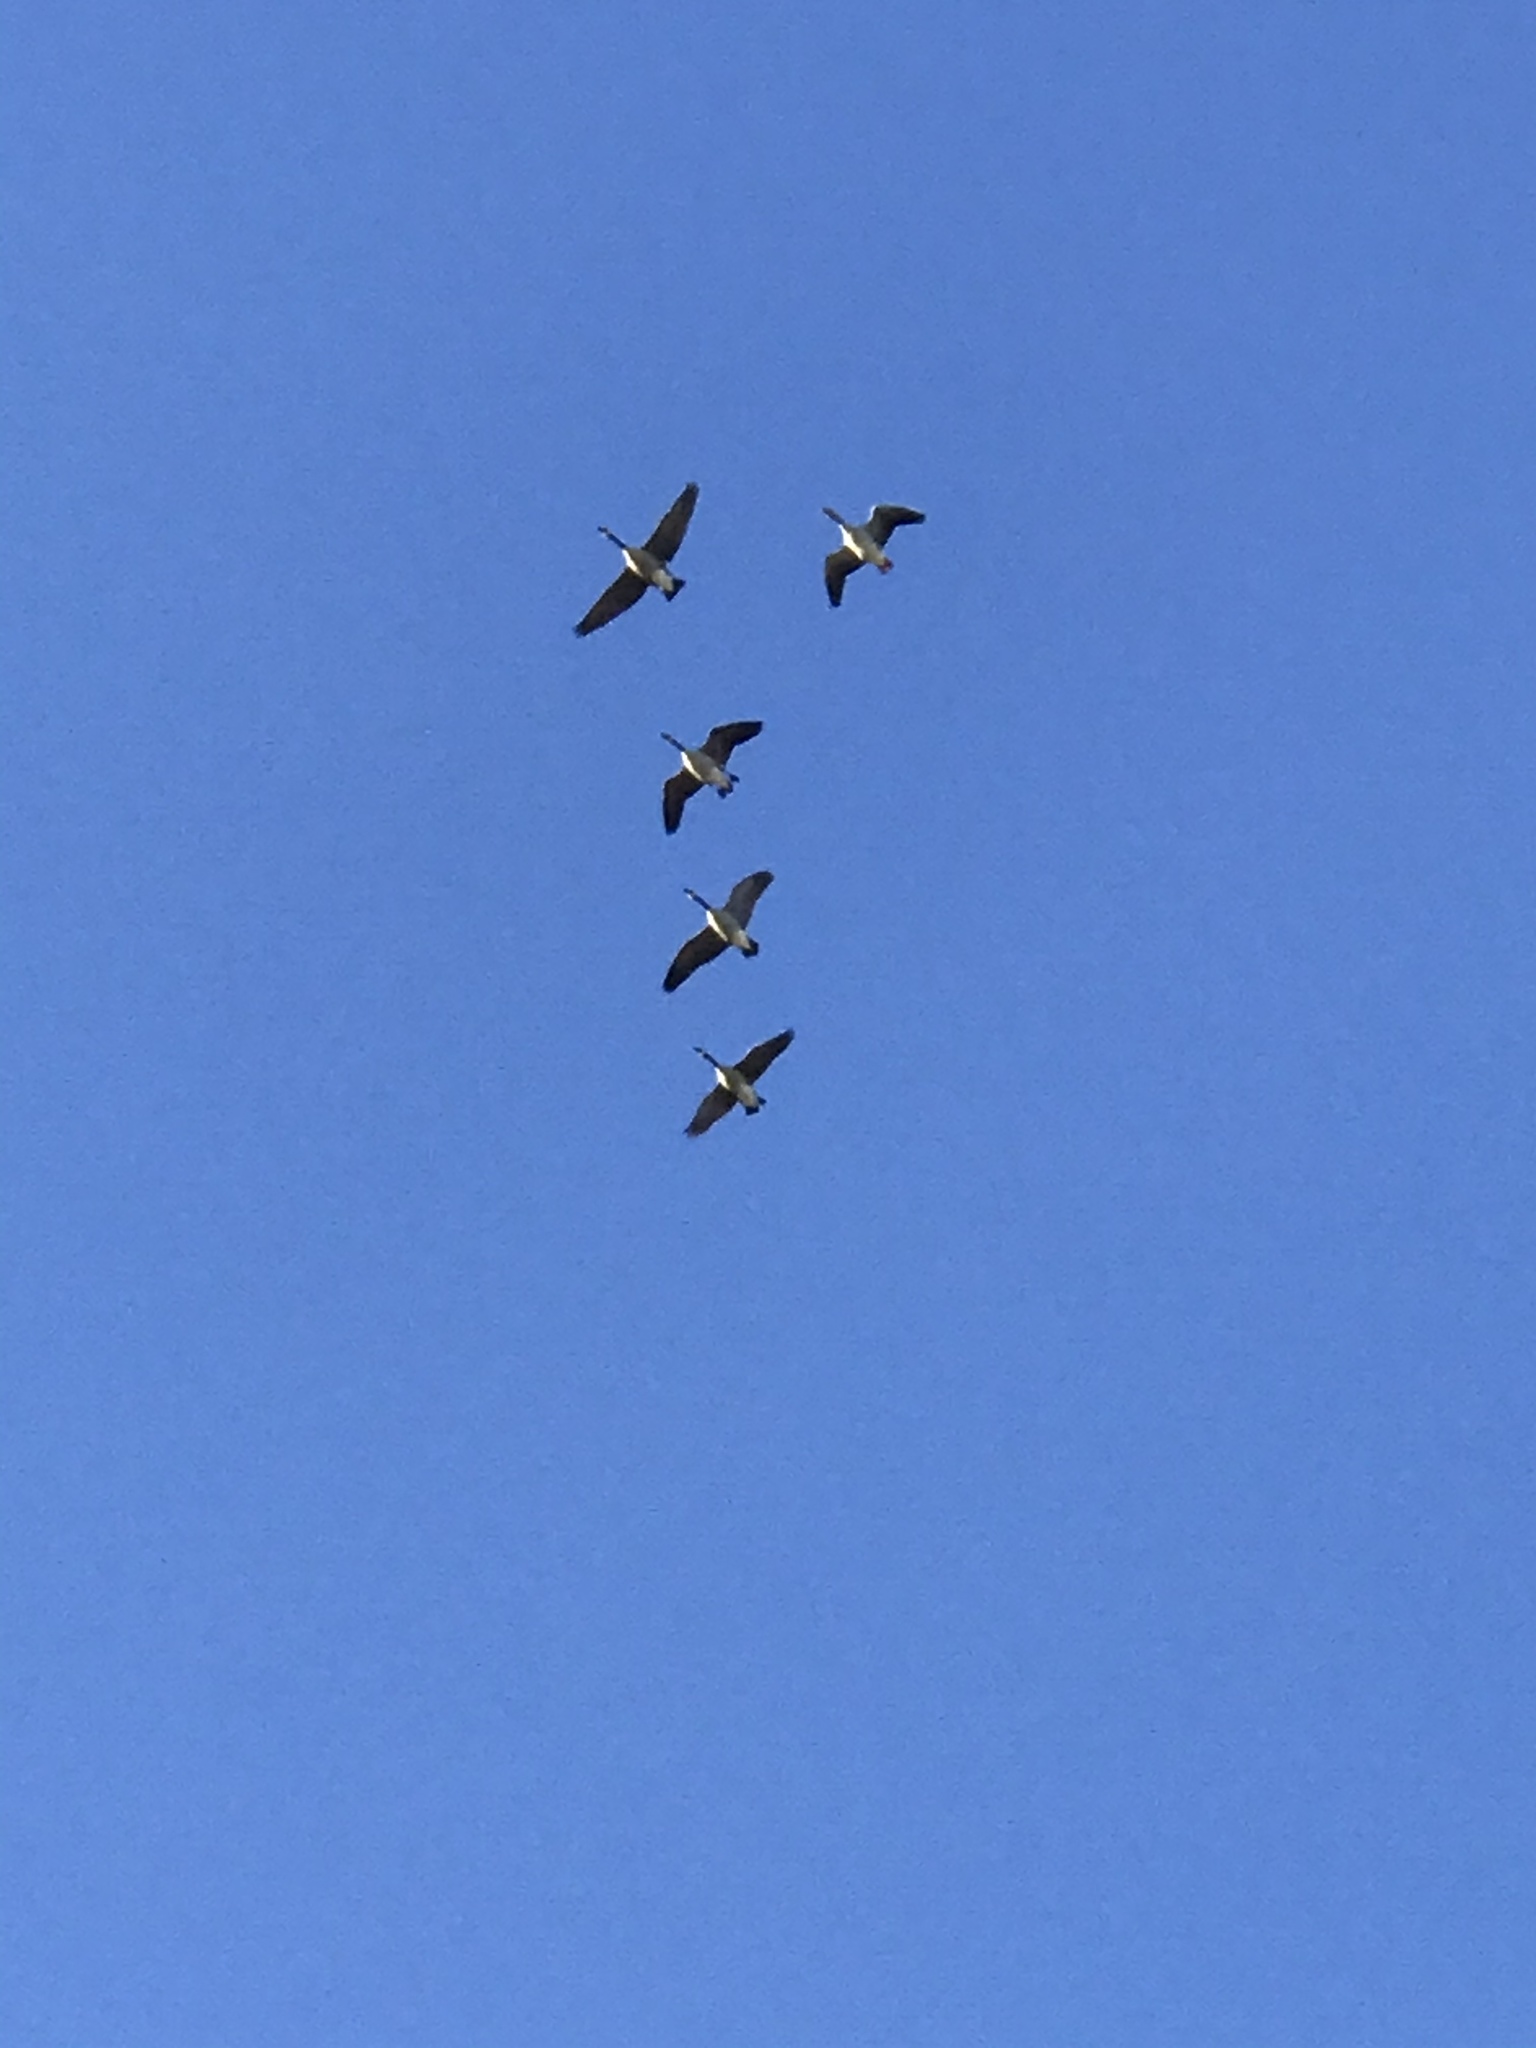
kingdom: Animalia
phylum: Chordata
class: Aves
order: Anseriformes
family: Anatidae
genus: Branta
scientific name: Branta canadensis
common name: Canada goose
